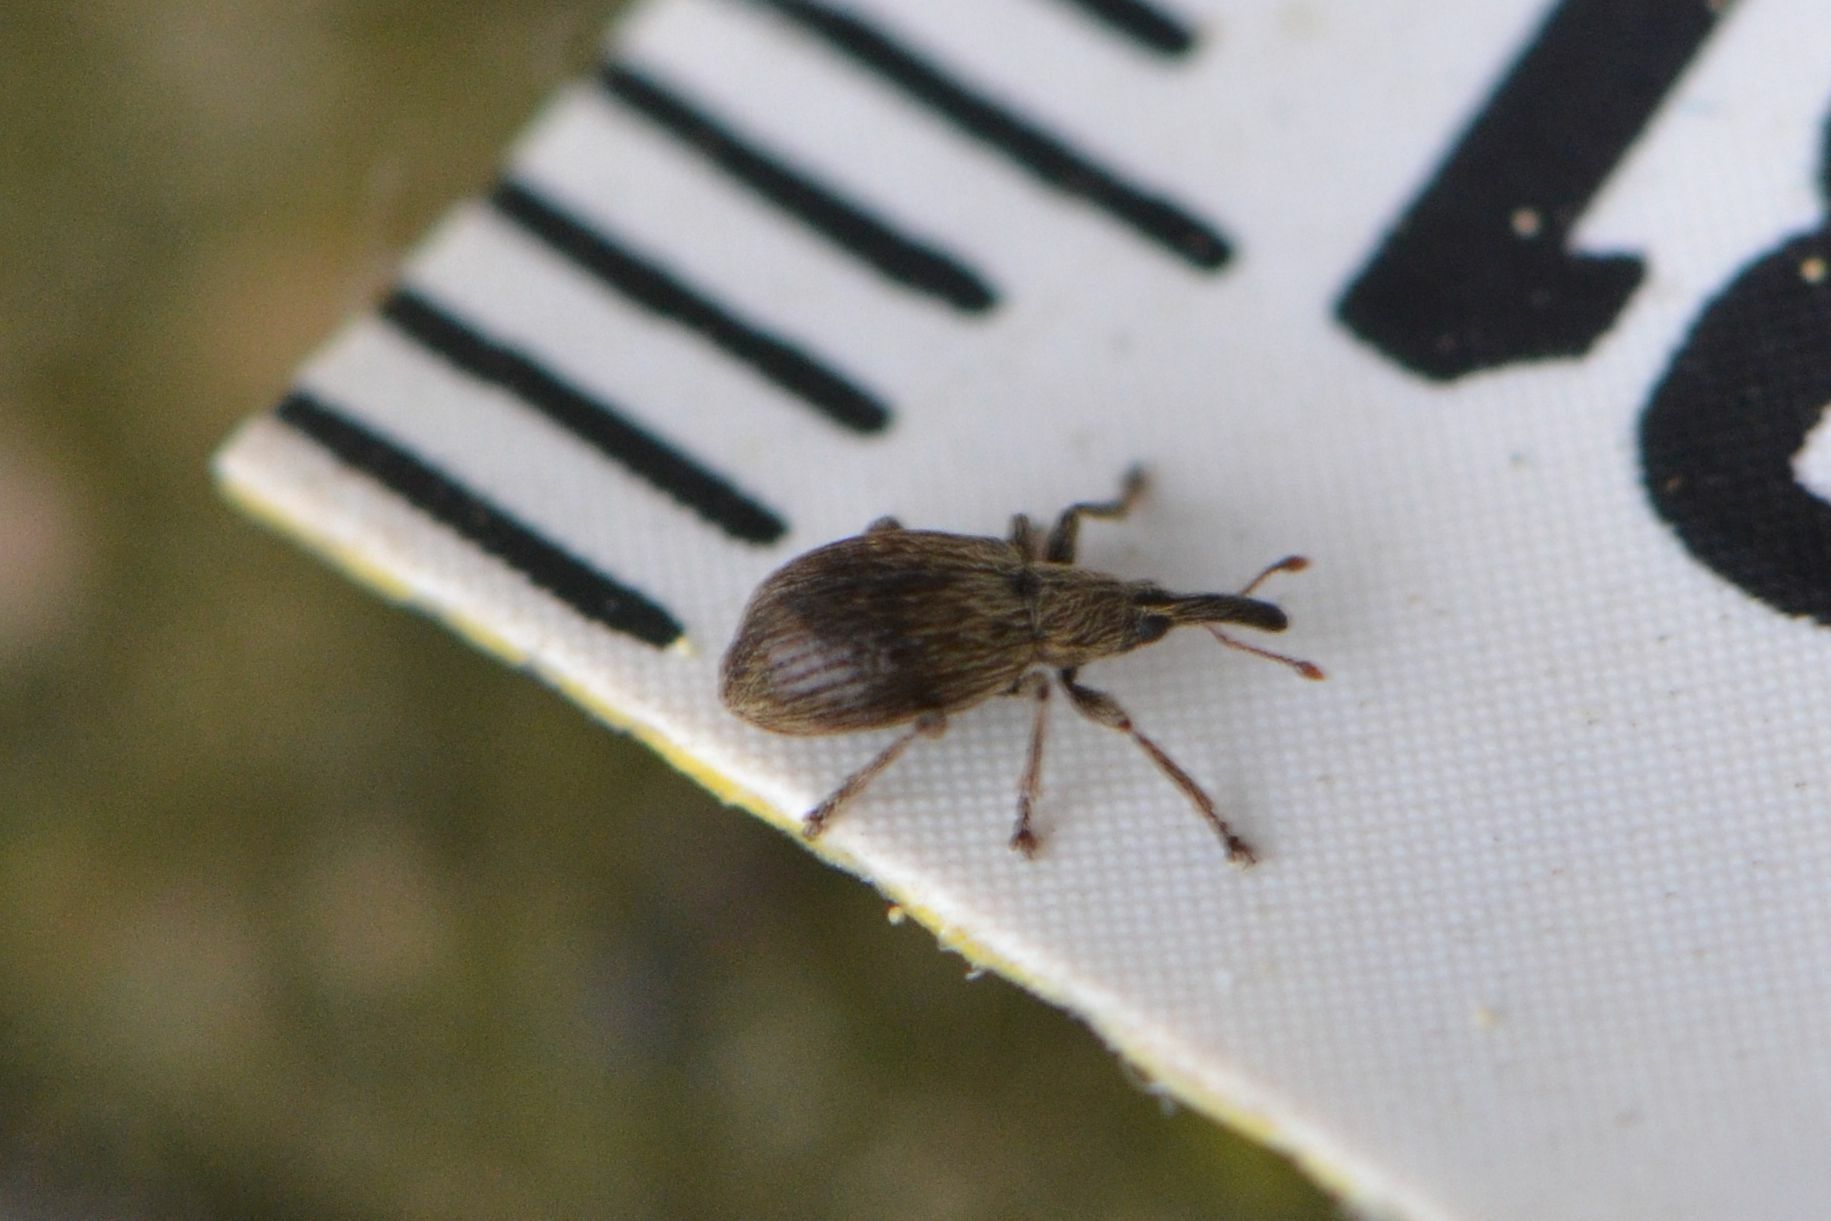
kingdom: Animalia
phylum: Arthropoda
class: Insecta
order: Coleoptera
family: Apionidae
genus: Trichopterapion
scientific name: Trichopterapion holosericeum
